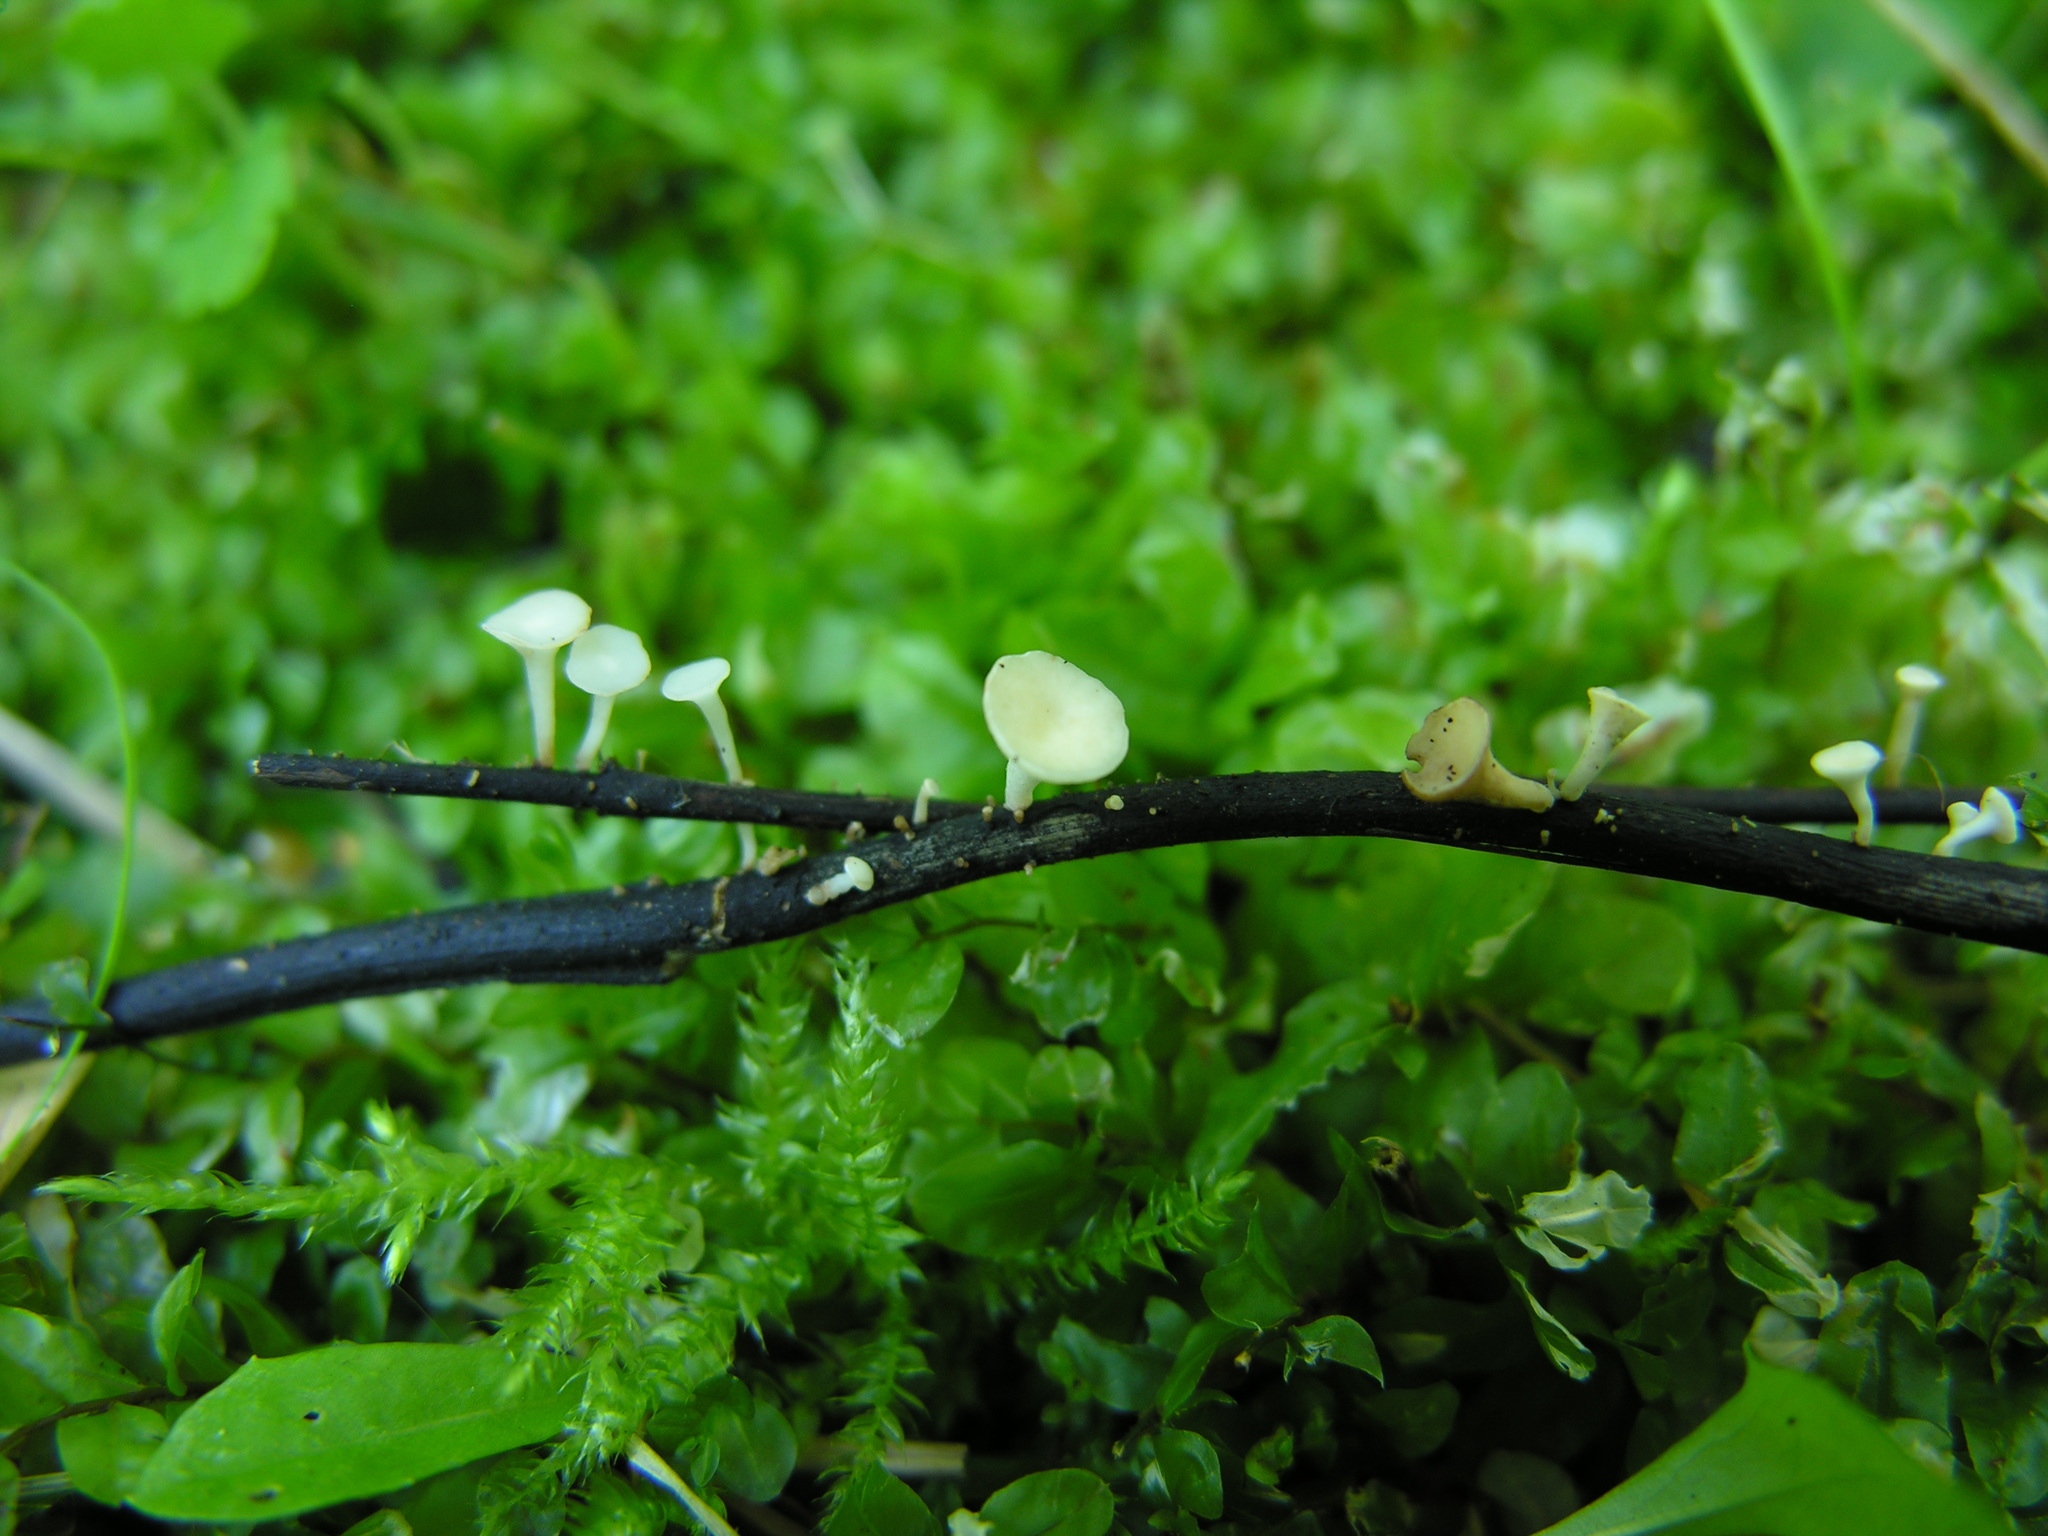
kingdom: Fungi
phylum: Ascomycota
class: Leotiomycetes
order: Helotiales
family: Helotiaceae
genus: Hymenoscyphus
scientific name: Hymenoscyphus albidus
